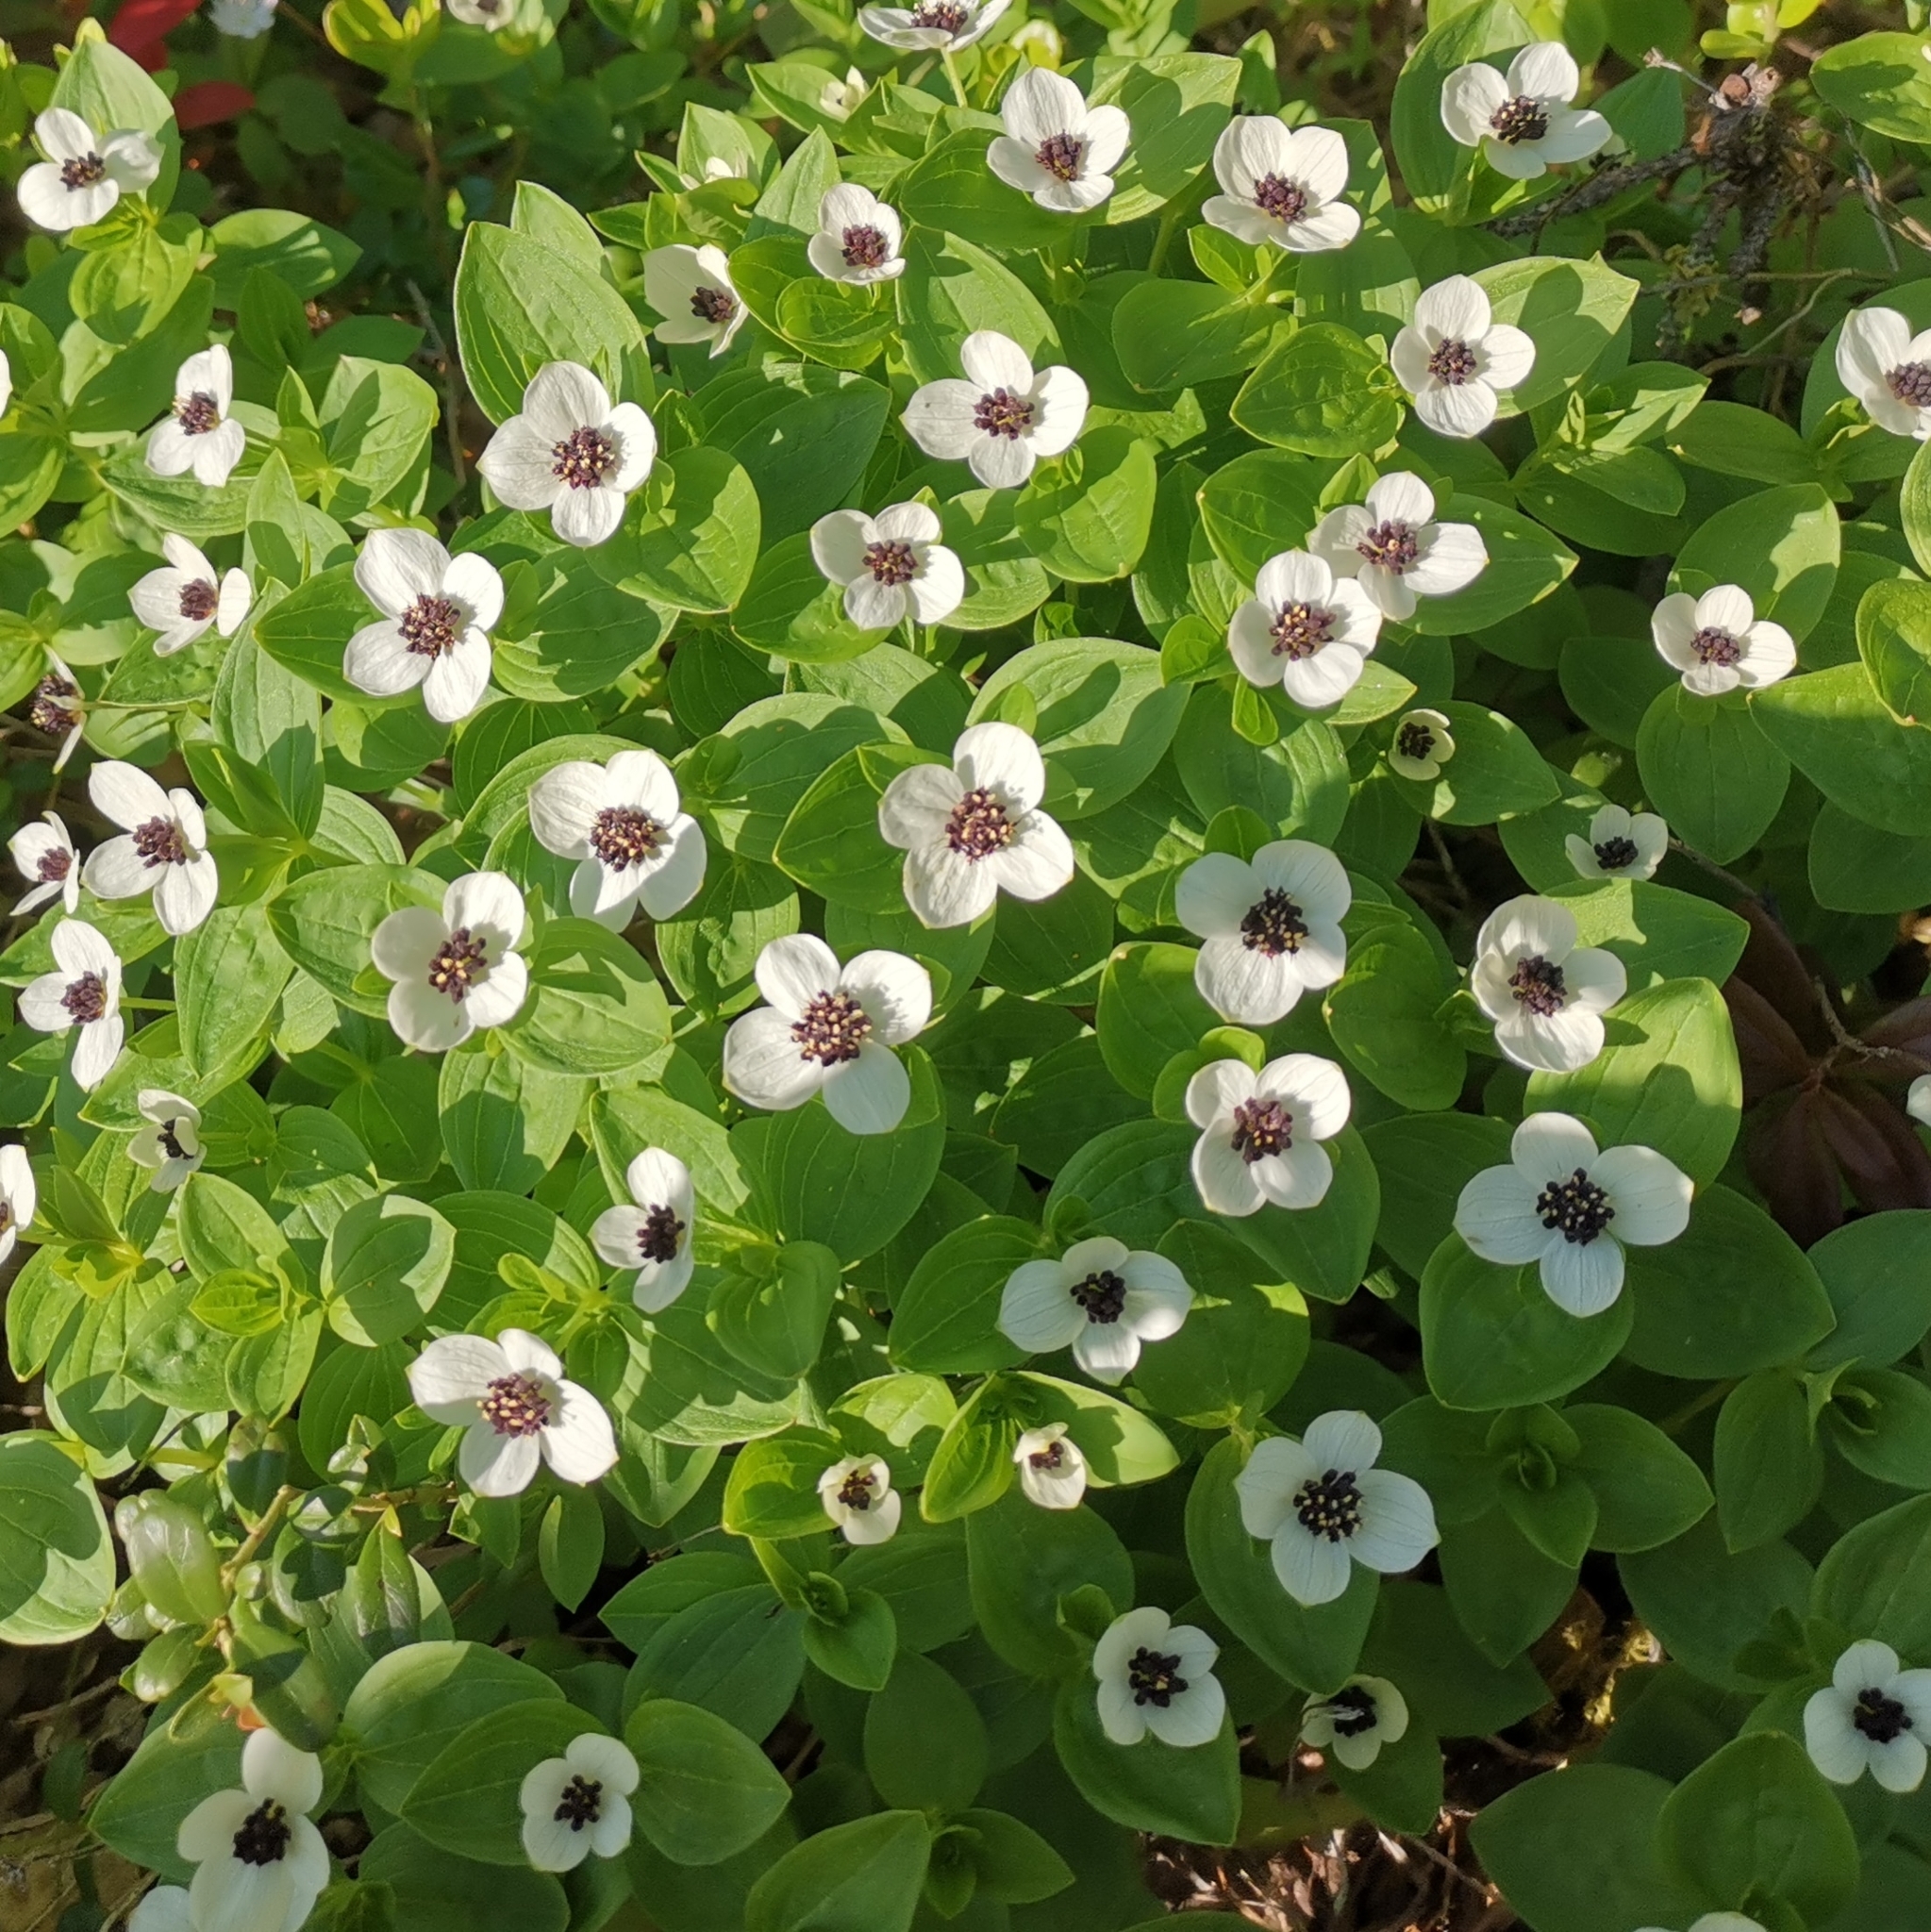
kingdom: Plantae
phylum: Tracheophyta
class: Magnoliopsida
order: Cornales
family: Cornaceae
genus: Cornus
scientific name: Cornus suecica
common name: Dwarf cornel
